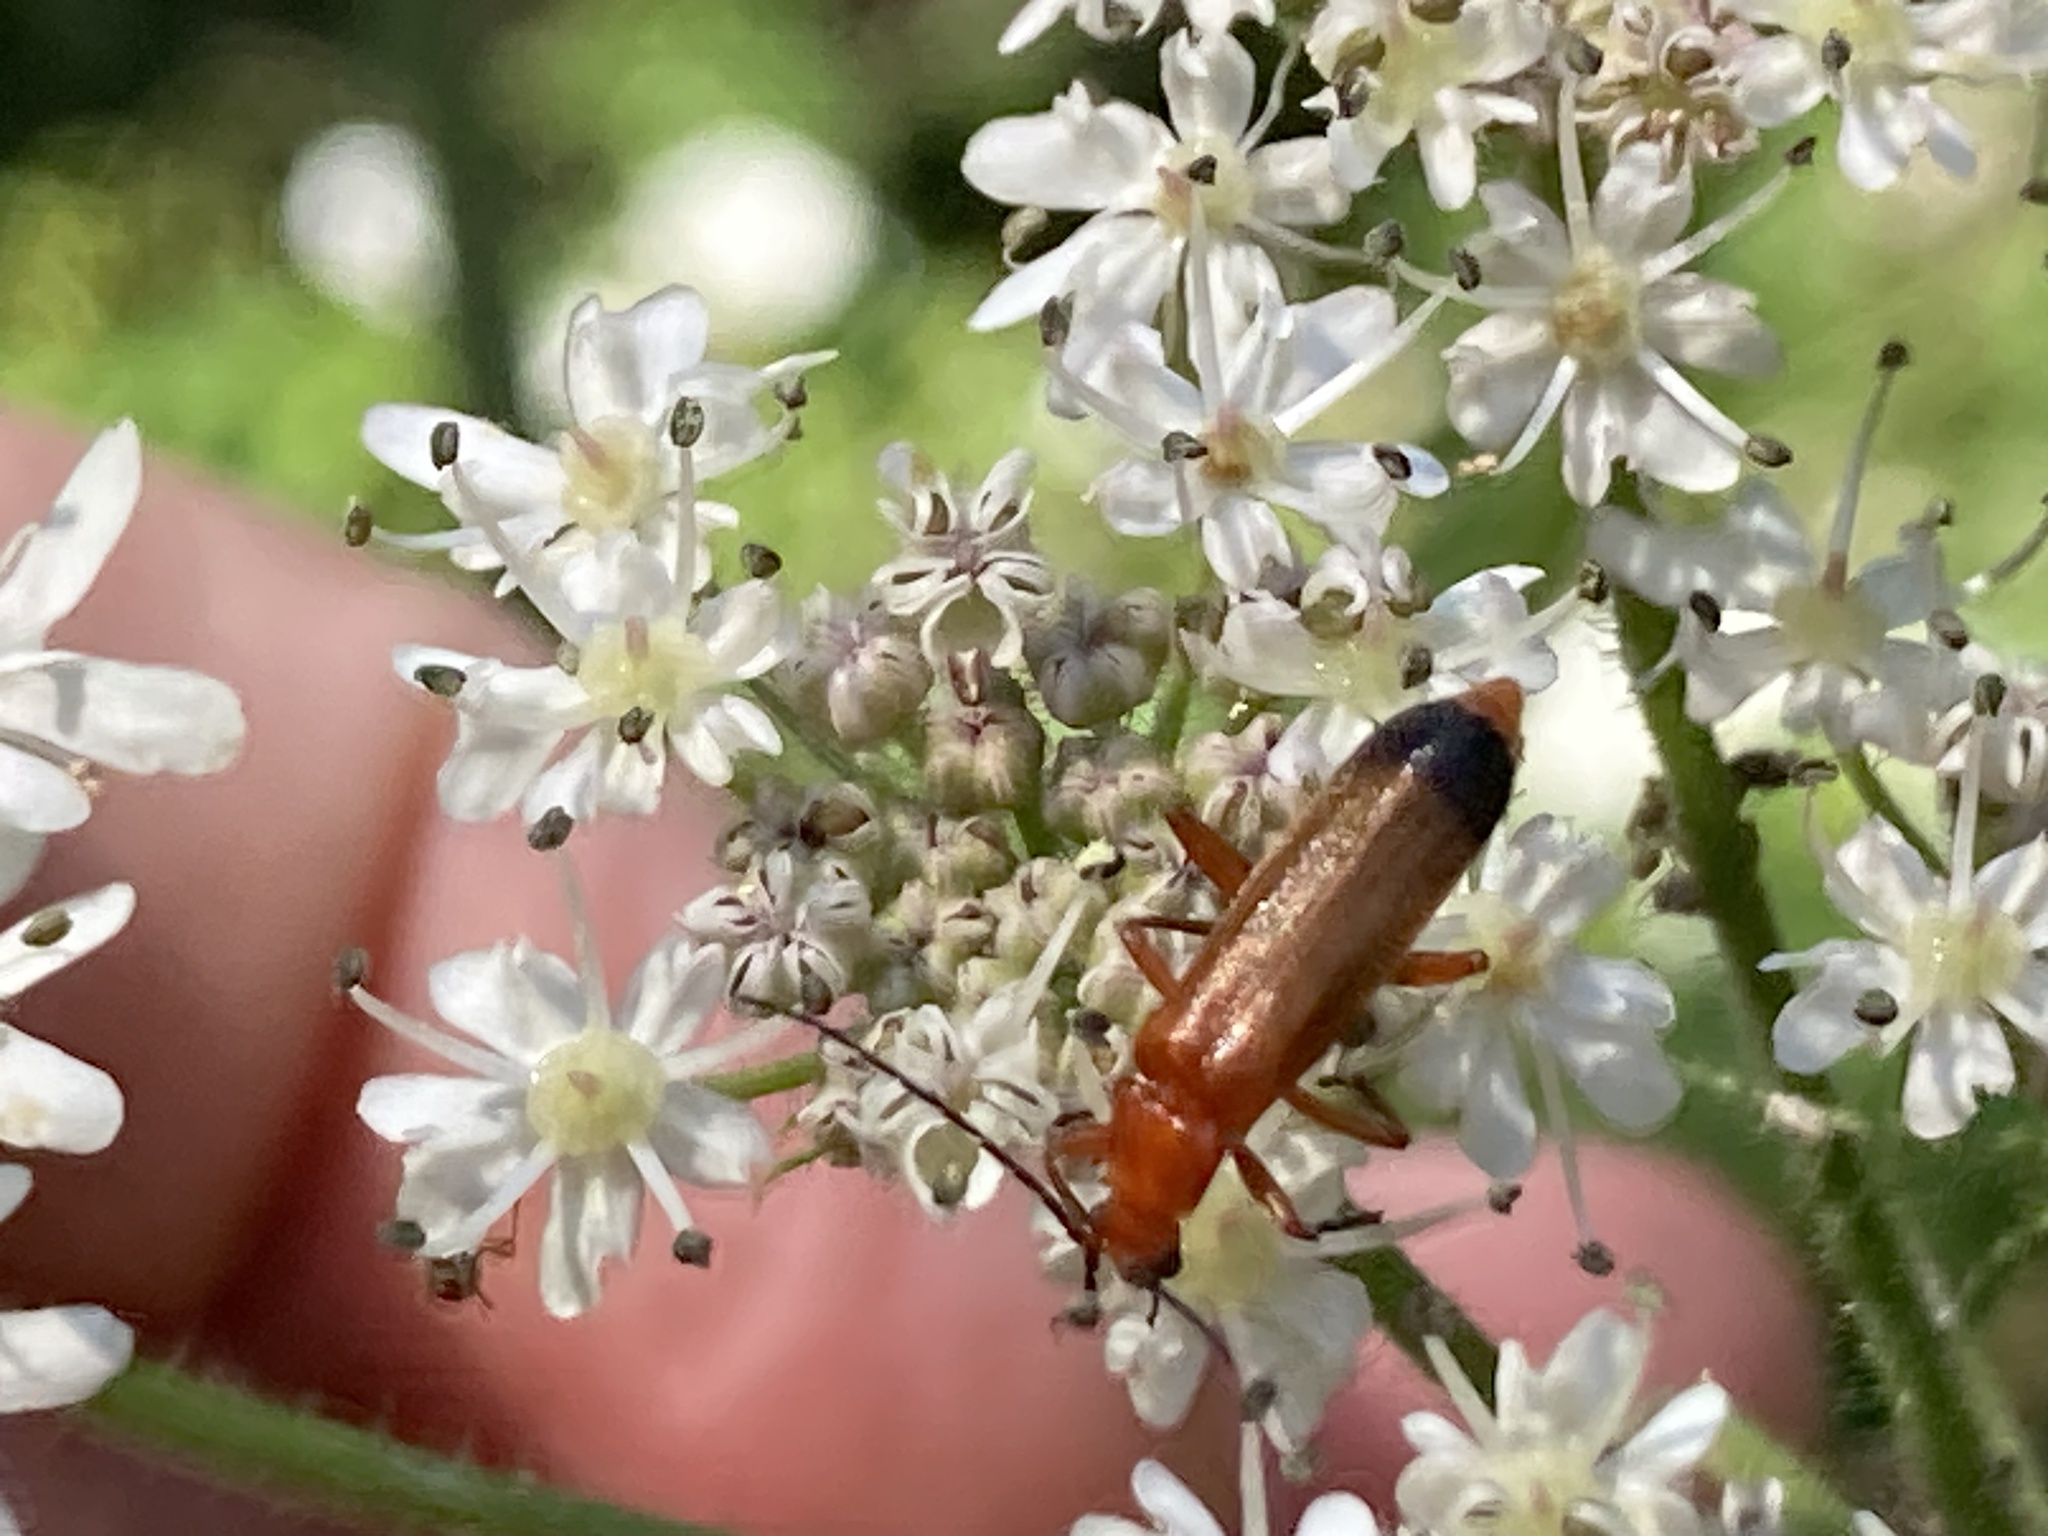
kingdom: Animalia
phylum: Arthropoda
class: Insecta
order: Coleoptera
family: Cantharidae
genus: Rhagonycha
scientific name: Rhagonycha fulva
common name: Common red soldier beetle
